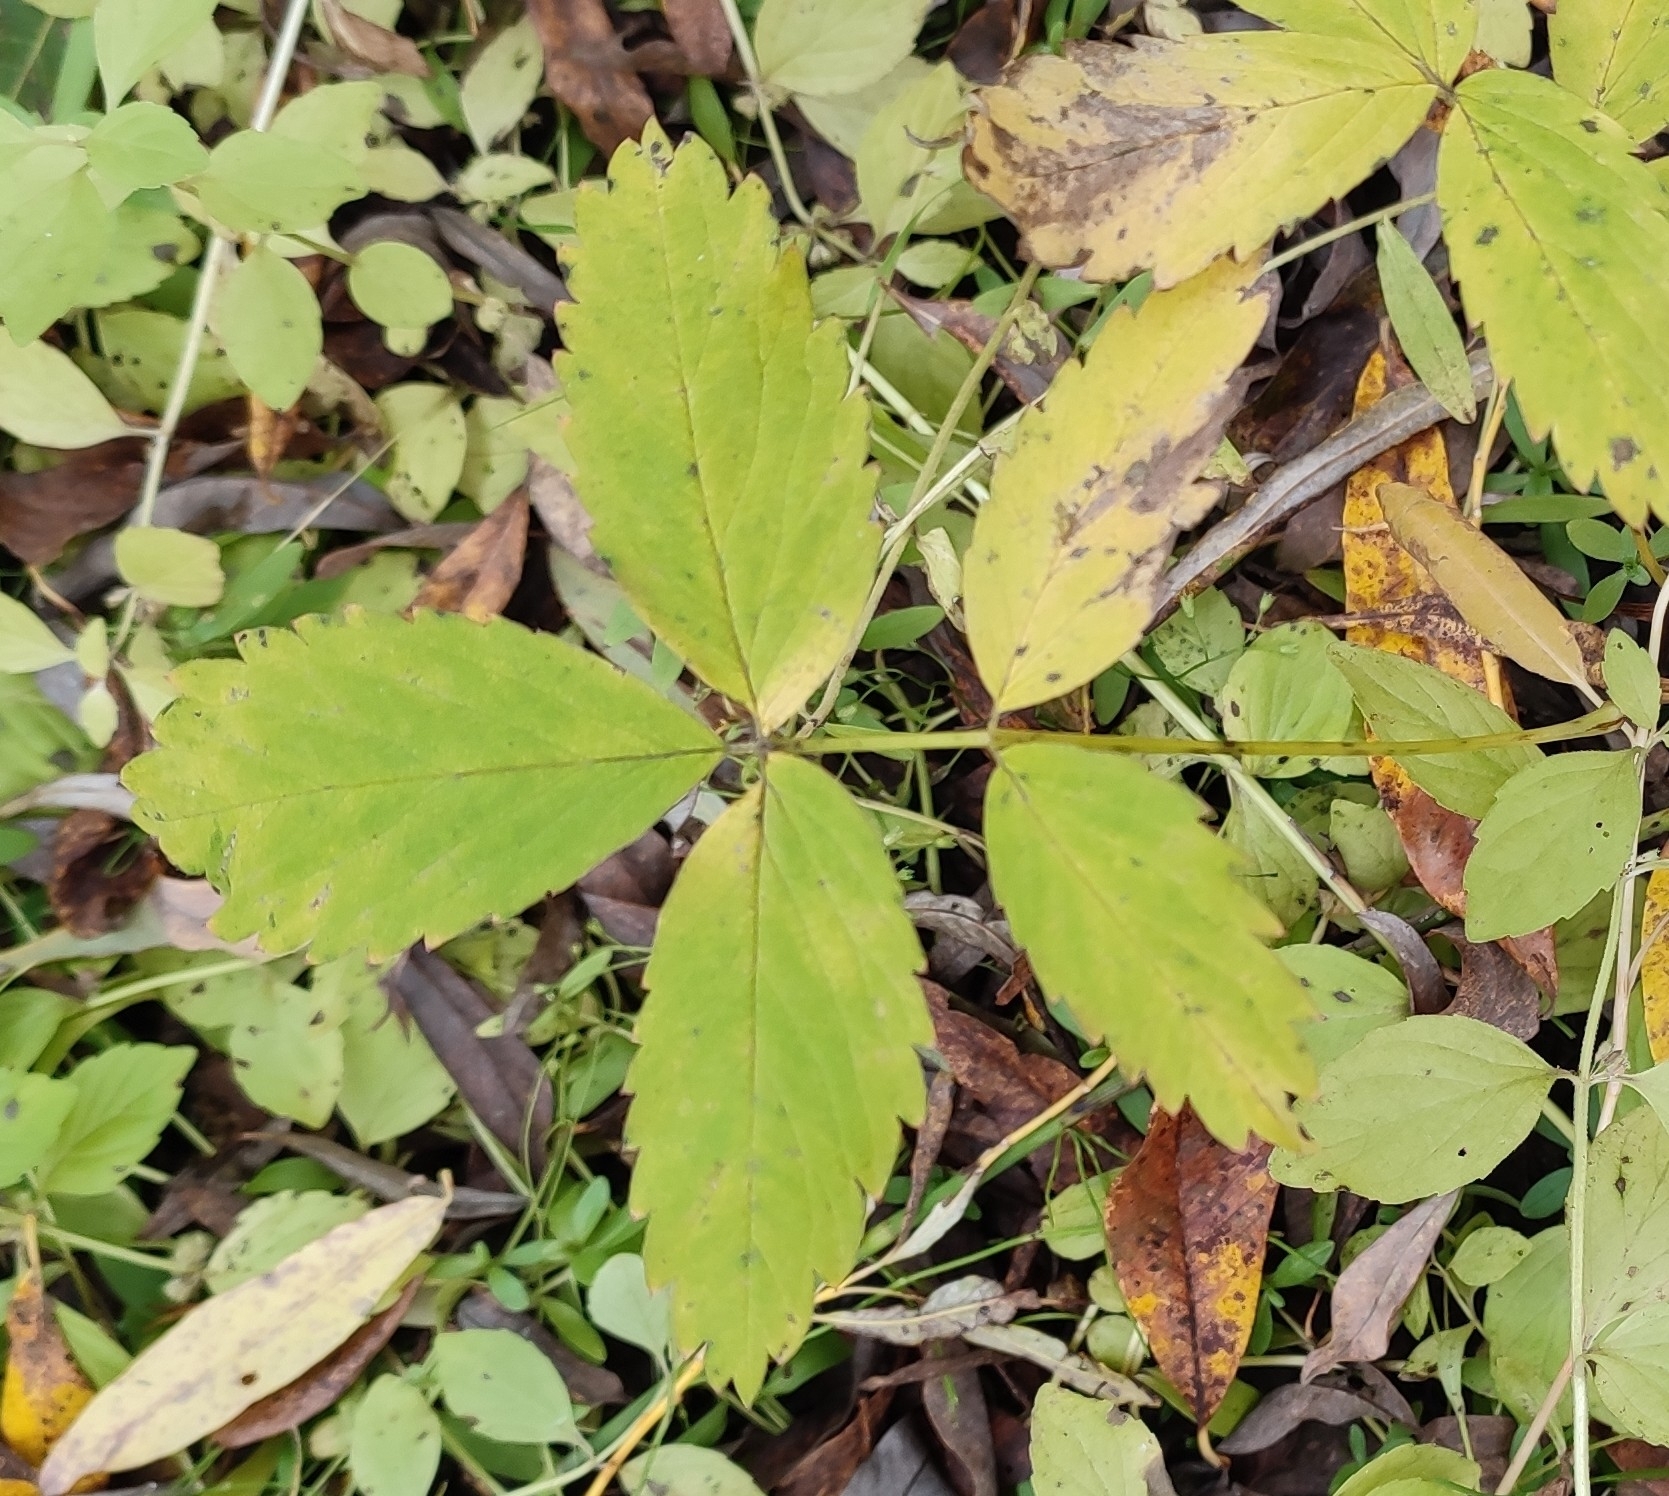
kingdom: Plantae
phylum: Tracheophyta
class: Magnoliopsida
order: Rosales
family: Rosaceae
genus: Comarum
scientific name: Comarum palustre
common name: Marsh cinquefoil
